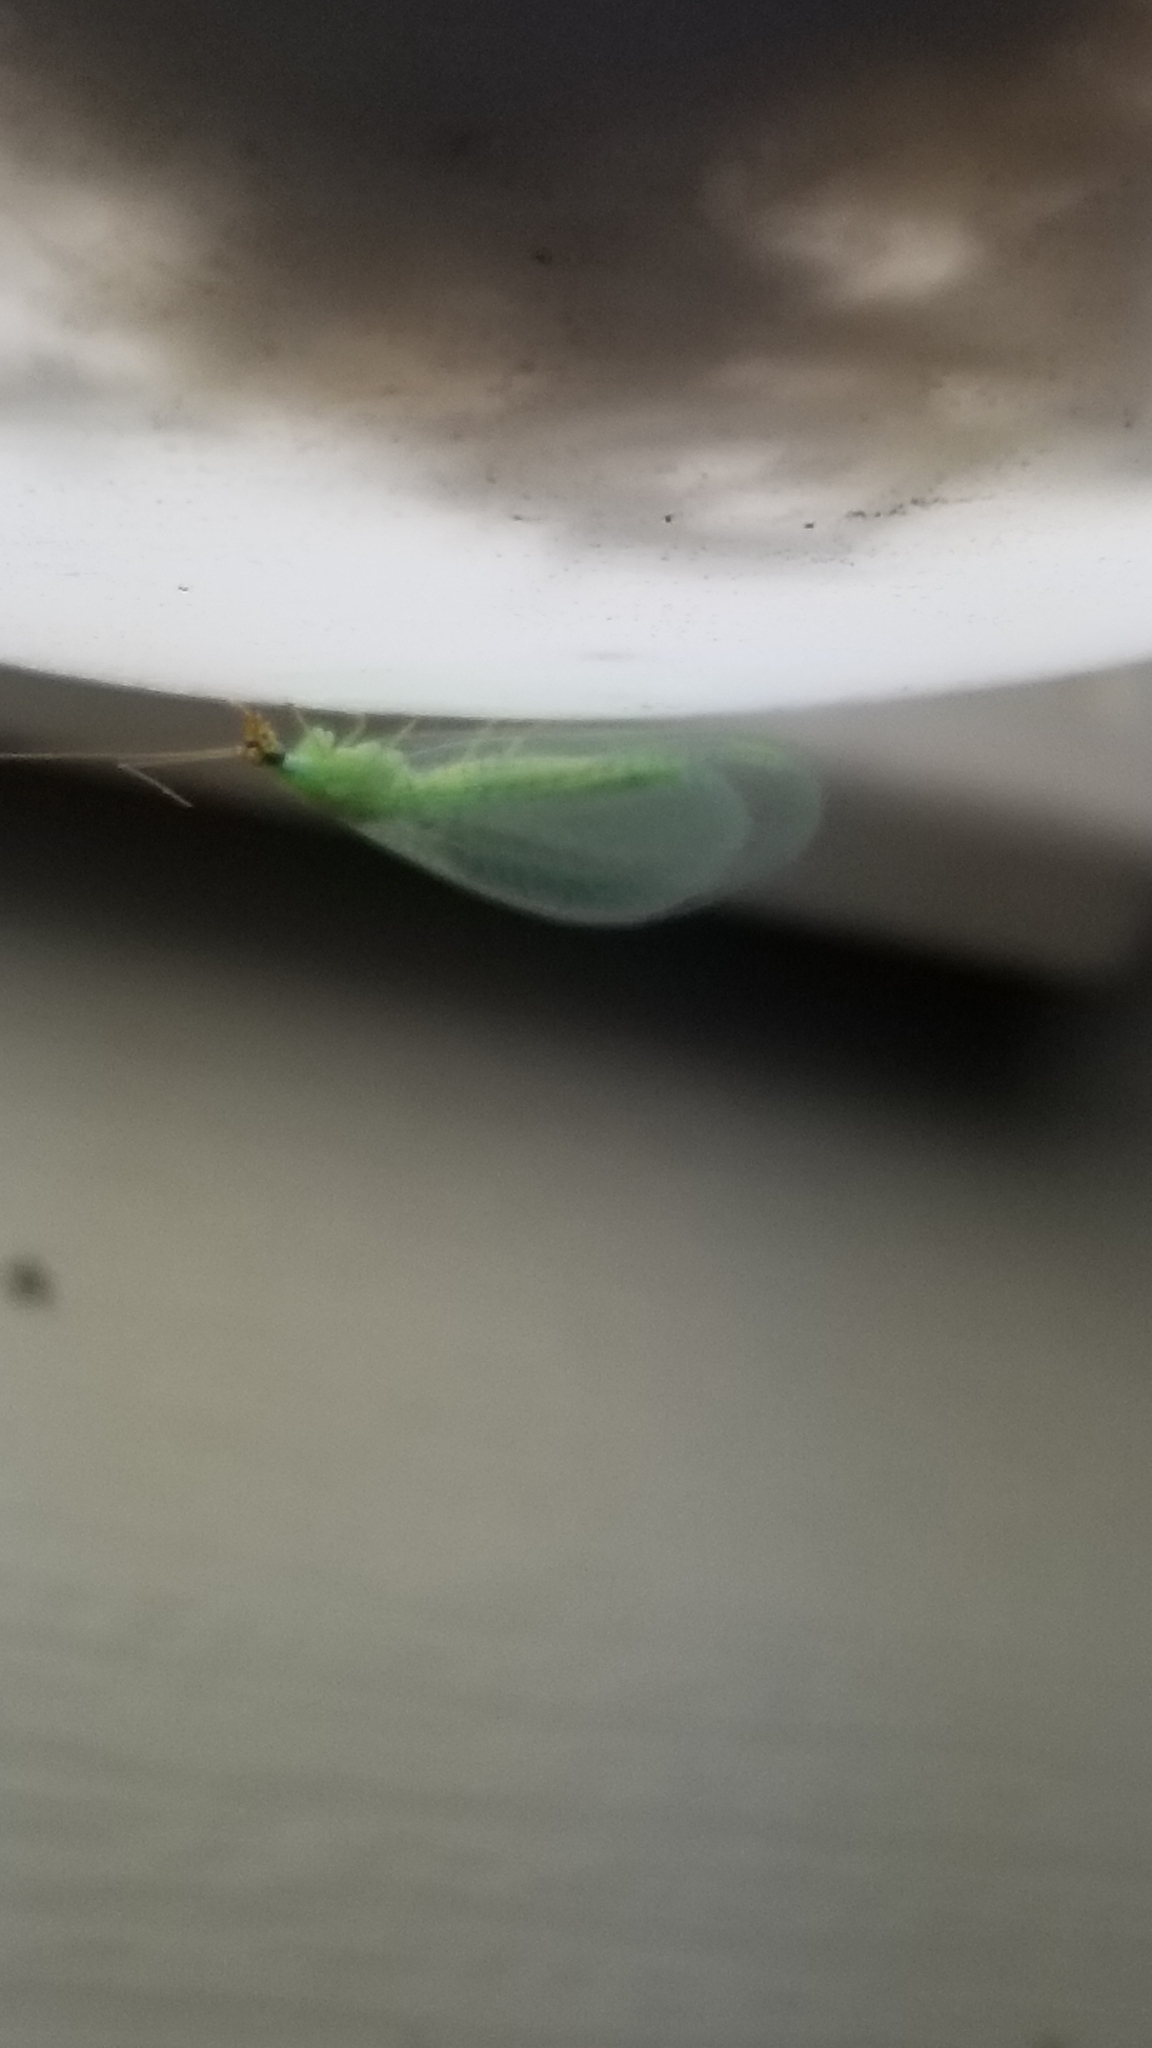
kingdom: Animalia
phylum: Arthropoda
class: Insecta
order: Neuroptera
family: Chrysopidae
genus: Chrysopa
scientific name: Chrysopa oculata
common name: Golden-eyed lacewing
